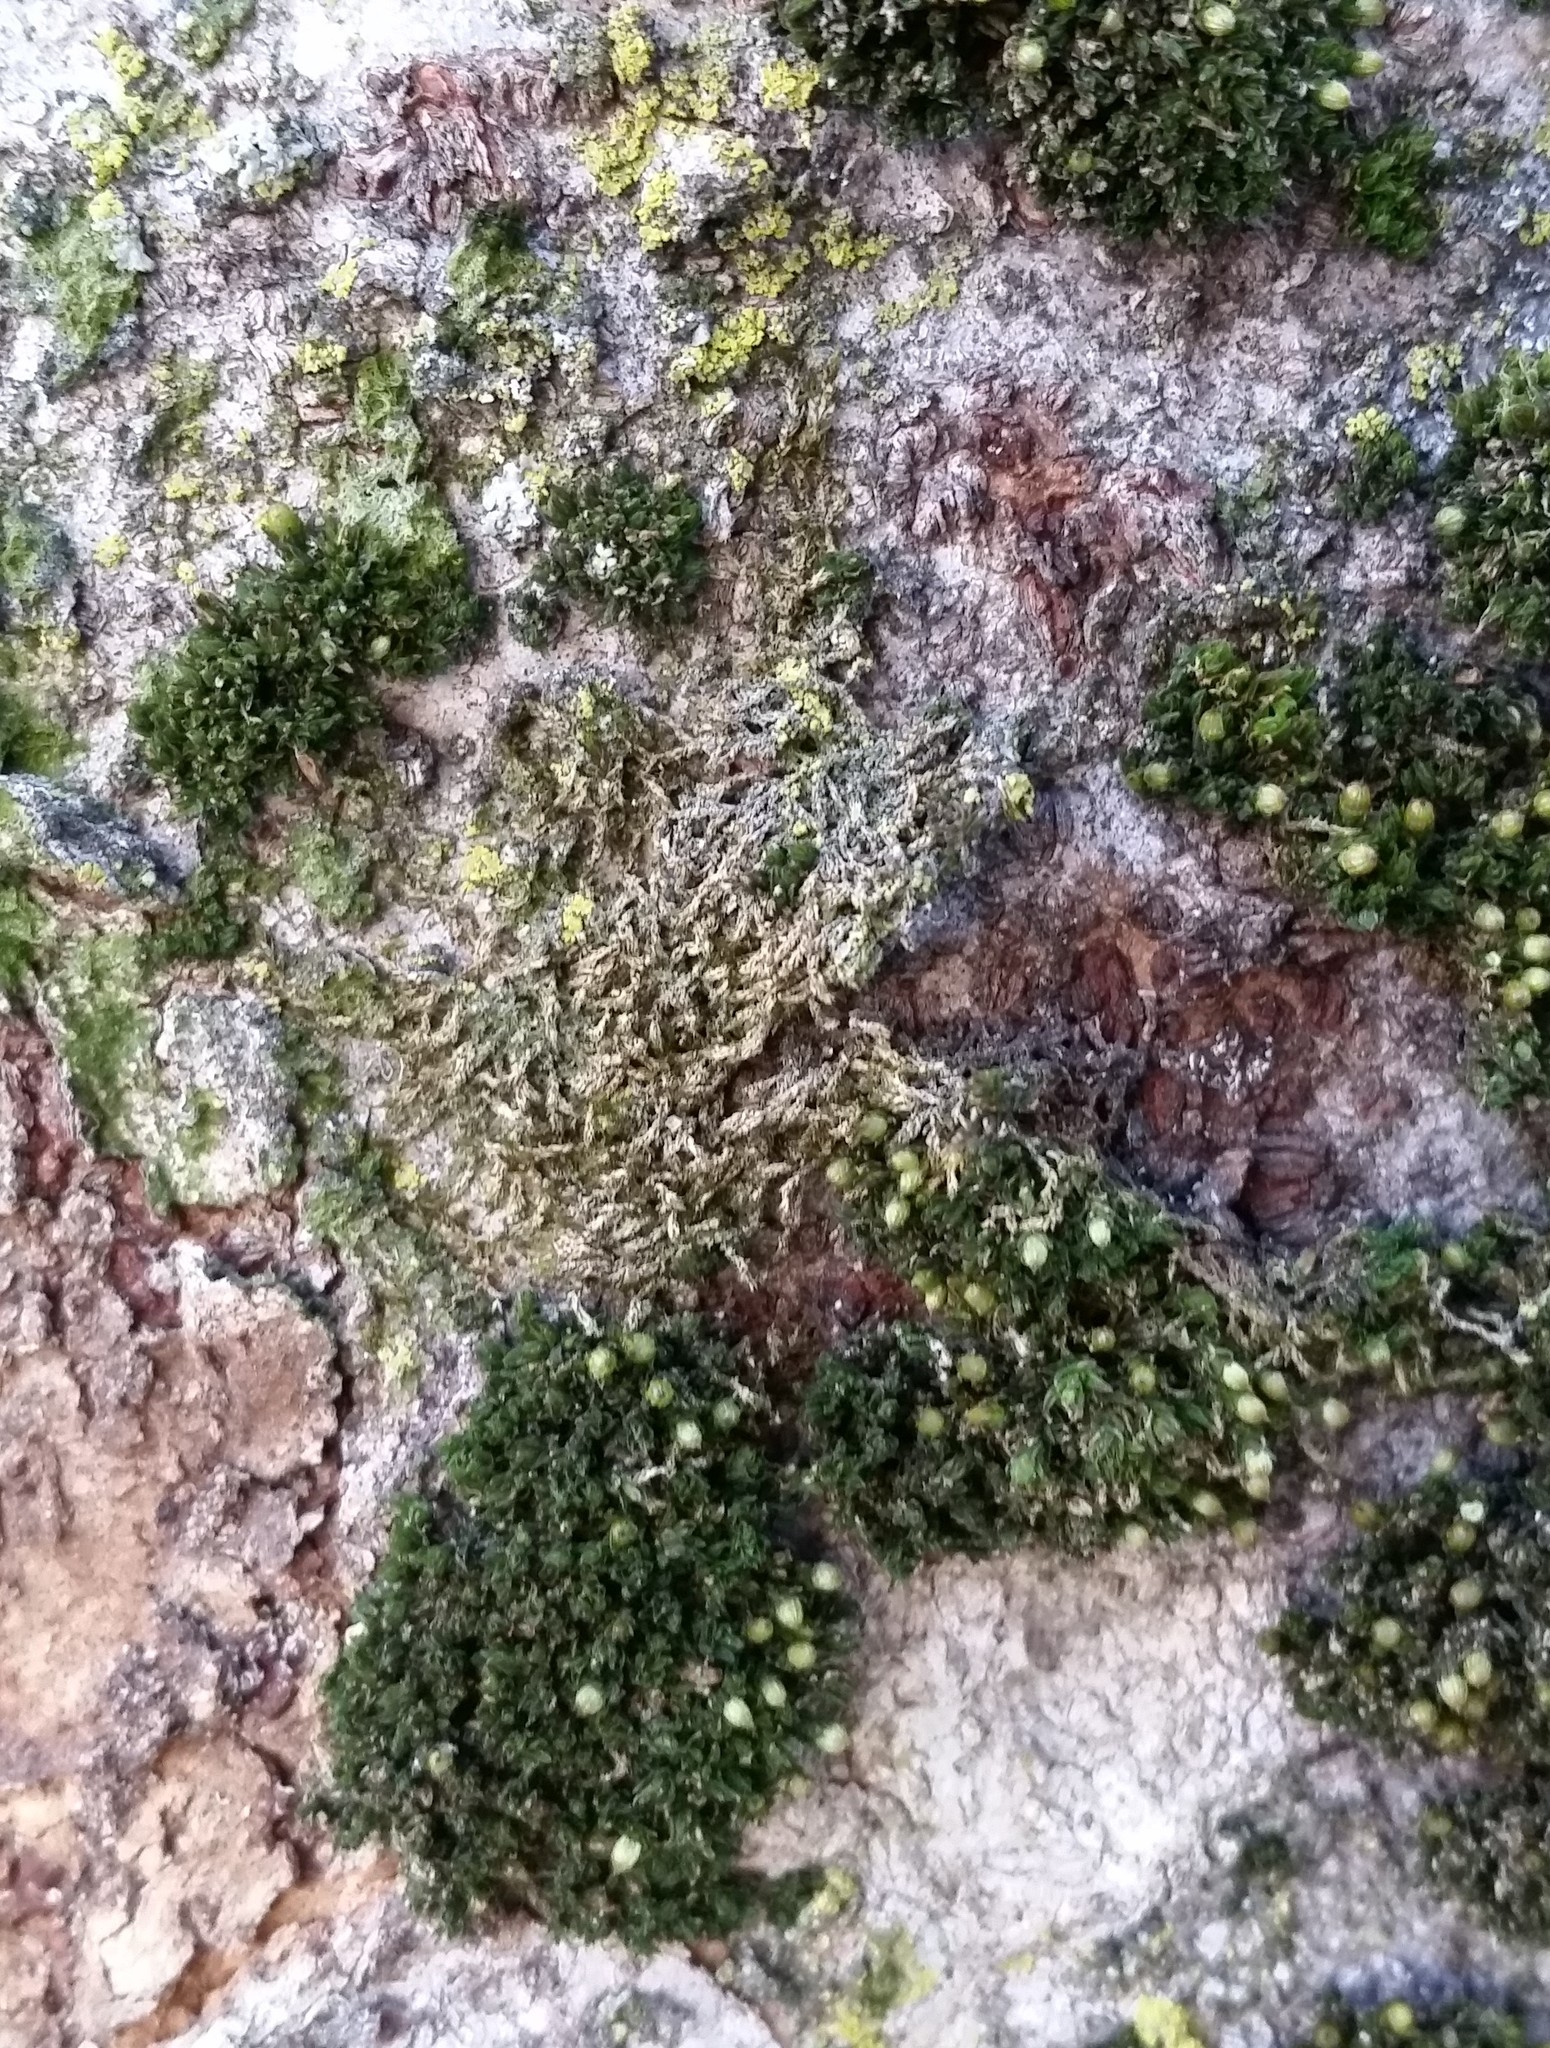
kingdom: Plantae
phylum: Bryophyta
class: Bryopsida
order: Hypnales
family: Pylaisiaceae
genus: Homomallium
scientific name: Homomallium adnatum
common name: Adnate hairy-grey moss
